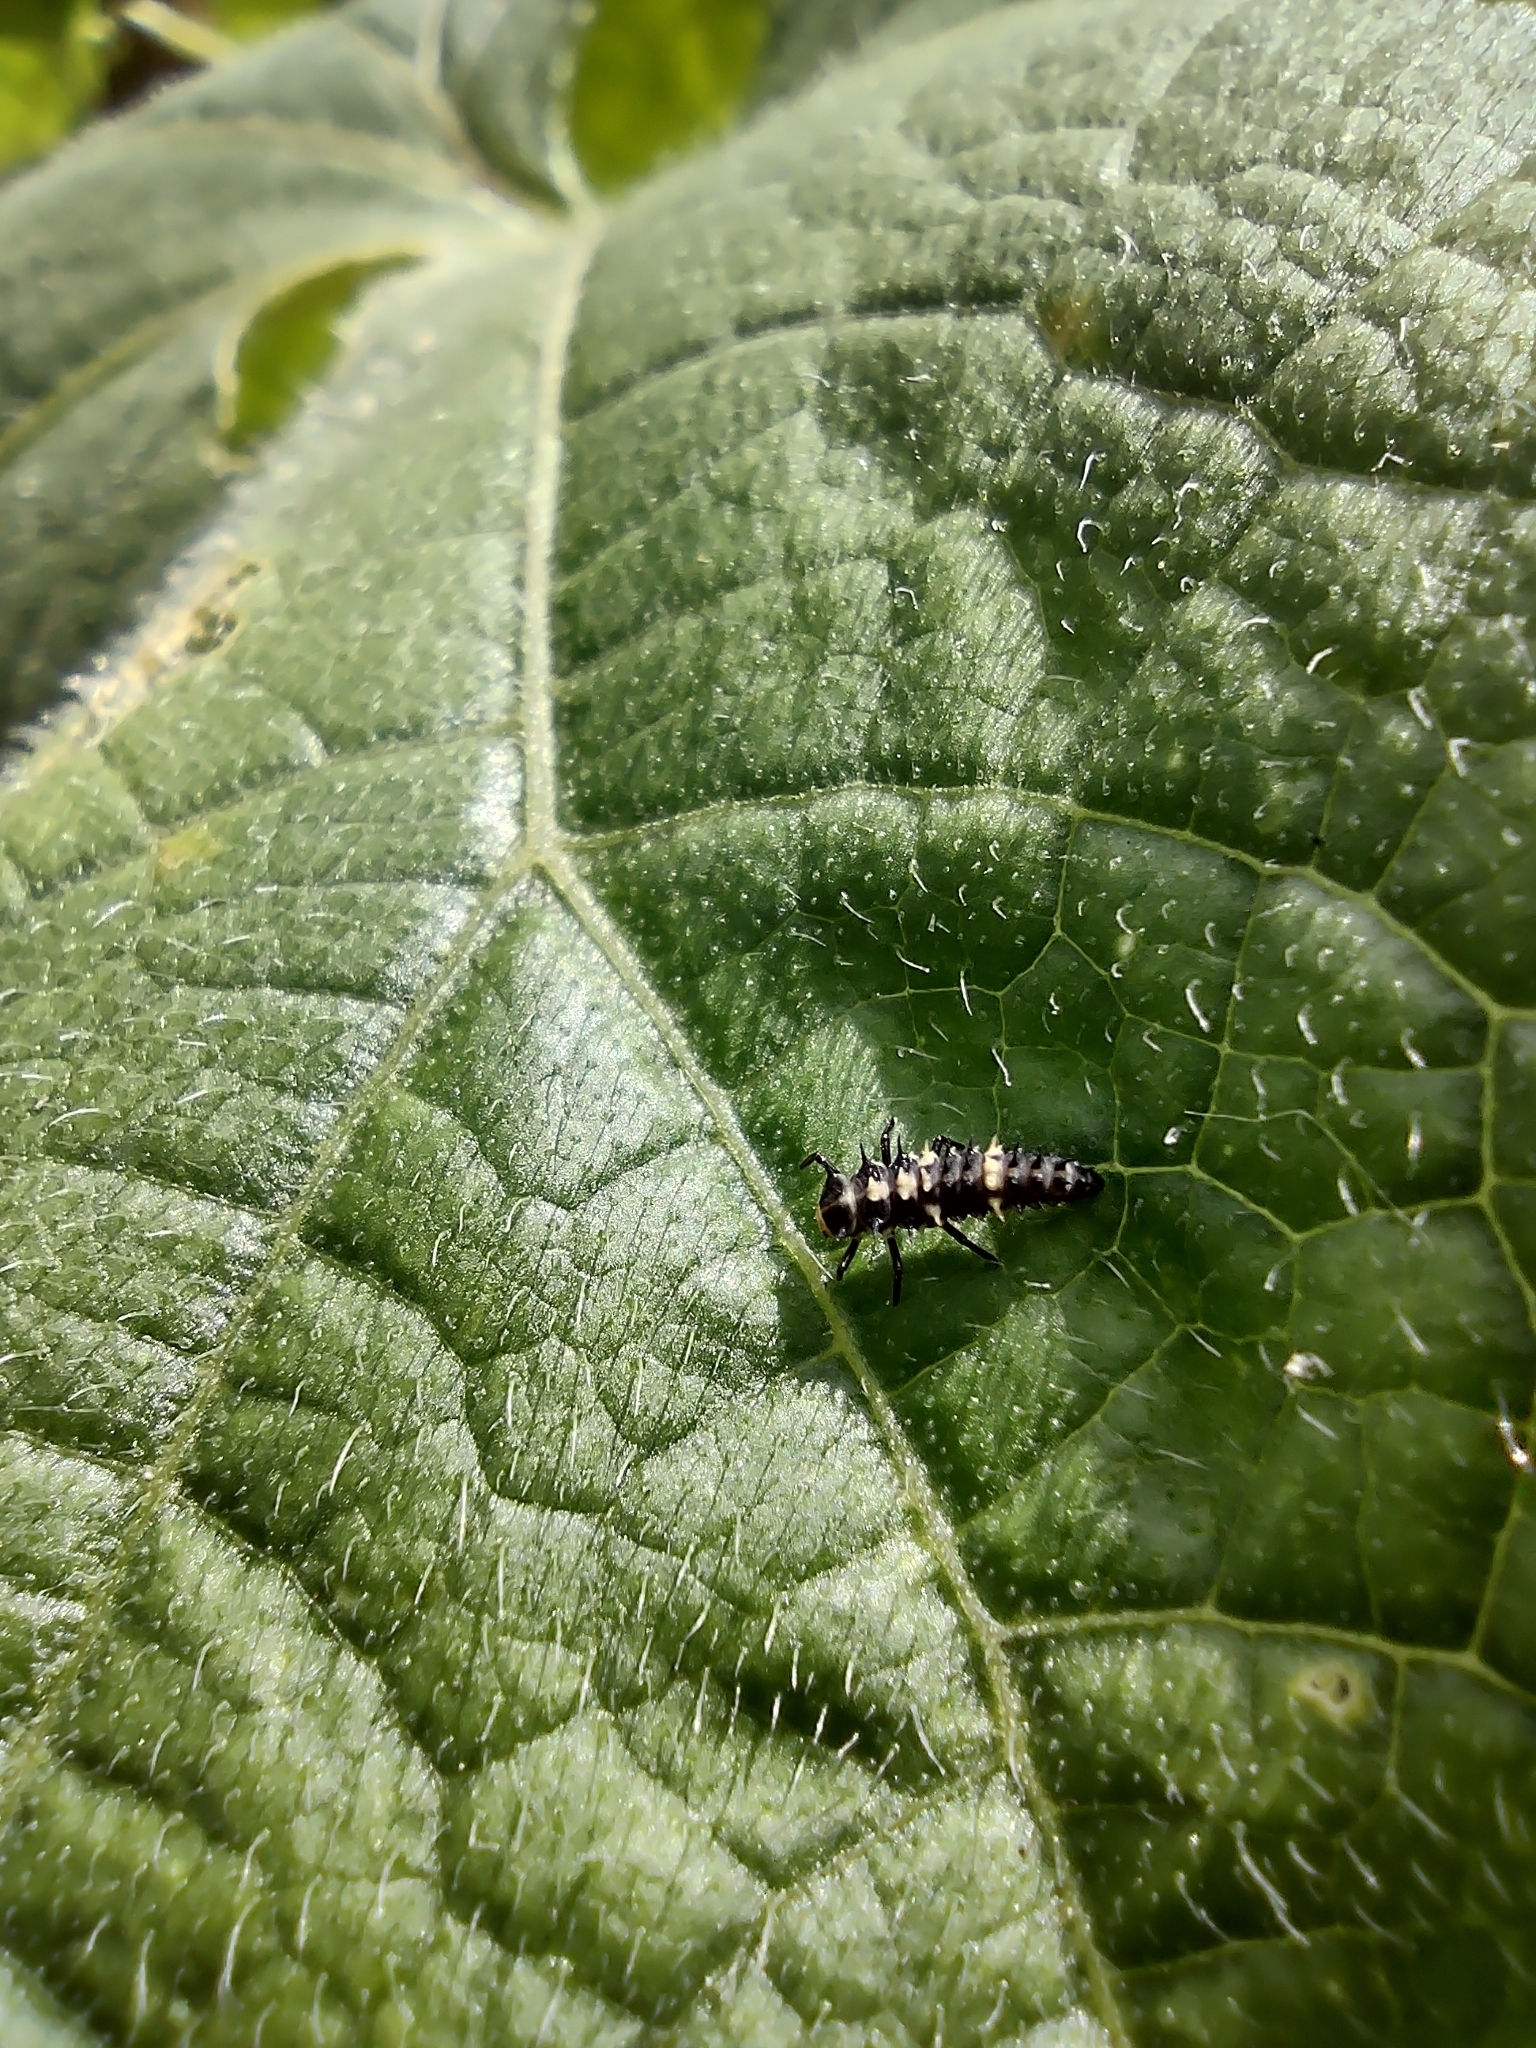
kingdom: Animalia
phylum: Arthropoda
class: Insecta
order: Coleoptera
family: Coccinellidae
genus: Cheilomenes
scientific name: Cheilomenes sexmaculata
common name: Ladybird beetle
